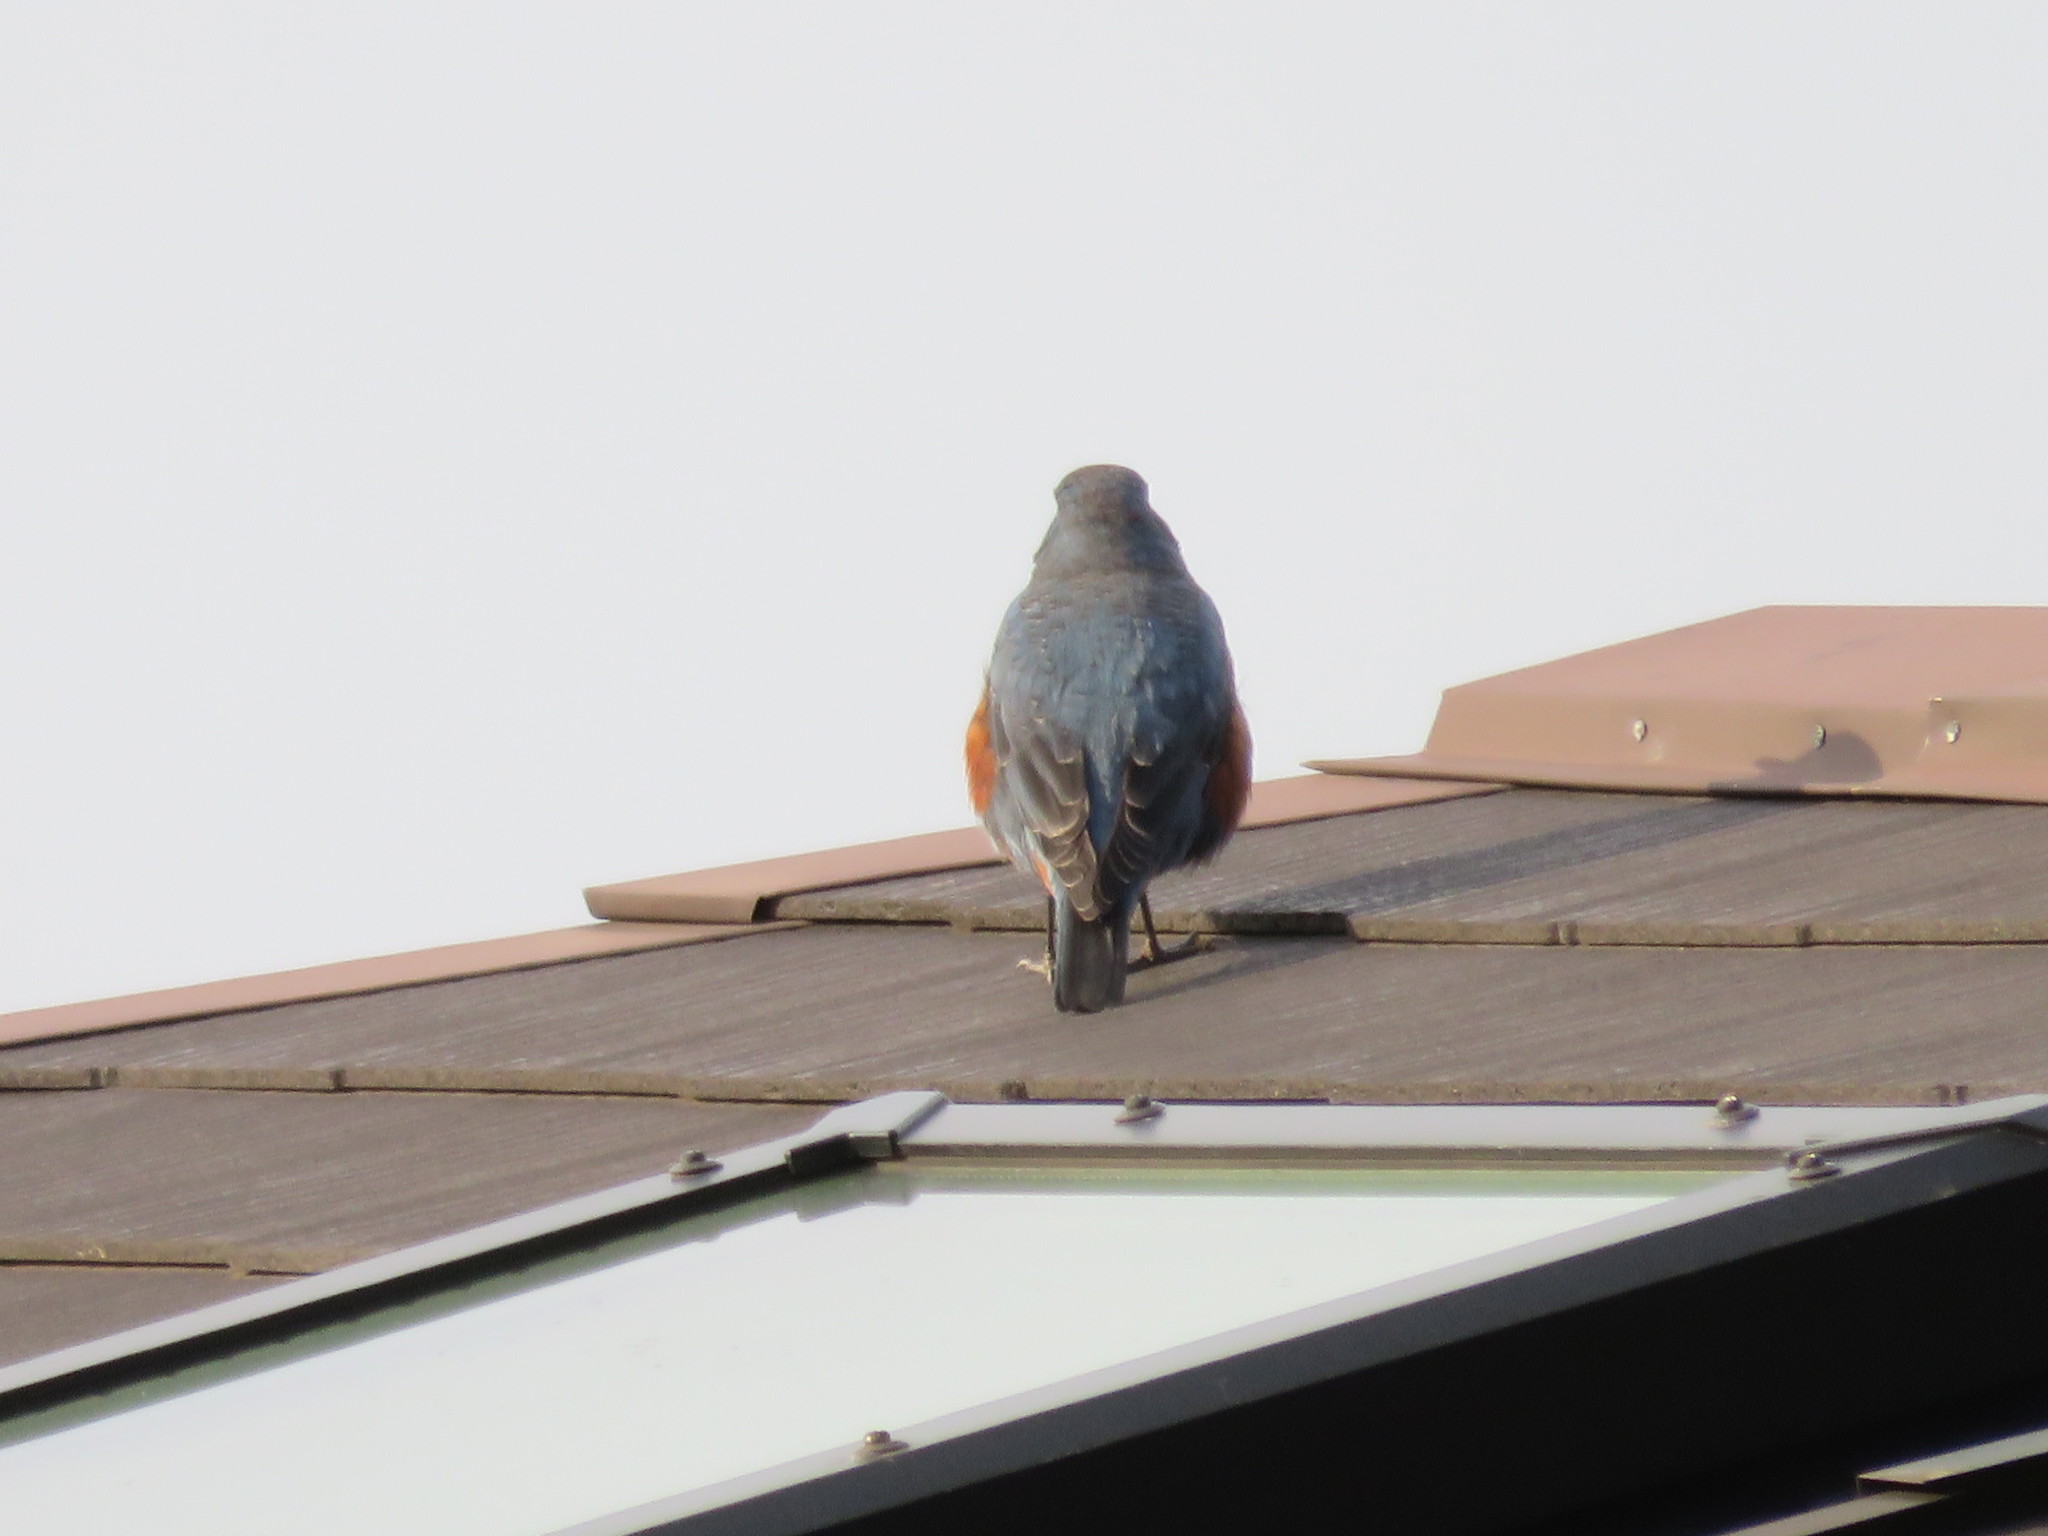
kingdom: Animalia
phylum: Chordata
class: Aves
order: Passeriformes
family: Muscicapidae
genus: Monticola
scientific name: Monticola solitarius
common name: Blue rock thrush
